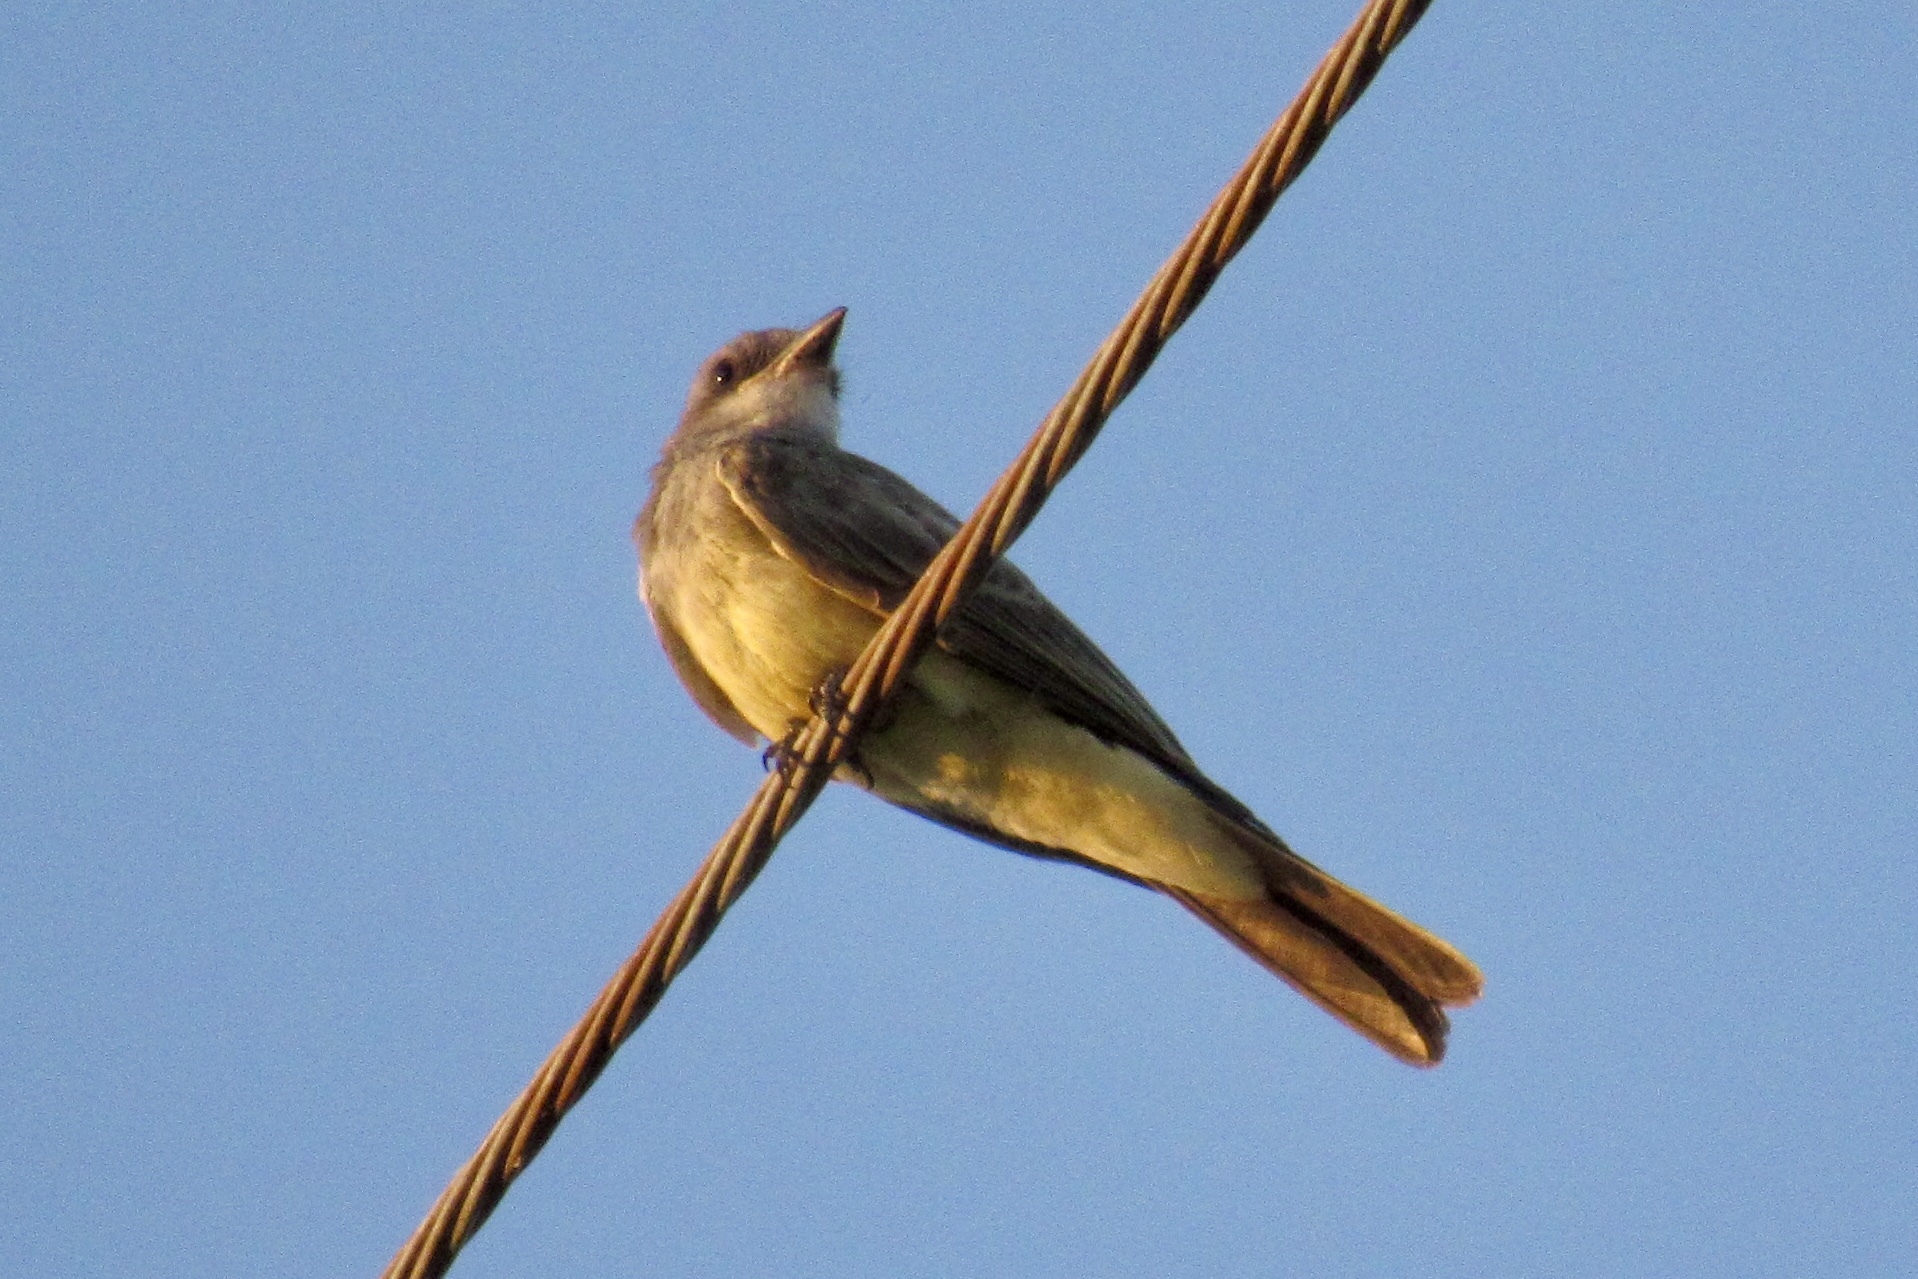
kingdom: Animalia
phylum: Chordata
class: Aves
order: Passeriformes
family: Tyrannidae
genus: Tyrannus
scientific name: Tyrannus verticalis
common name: Western kingbird
